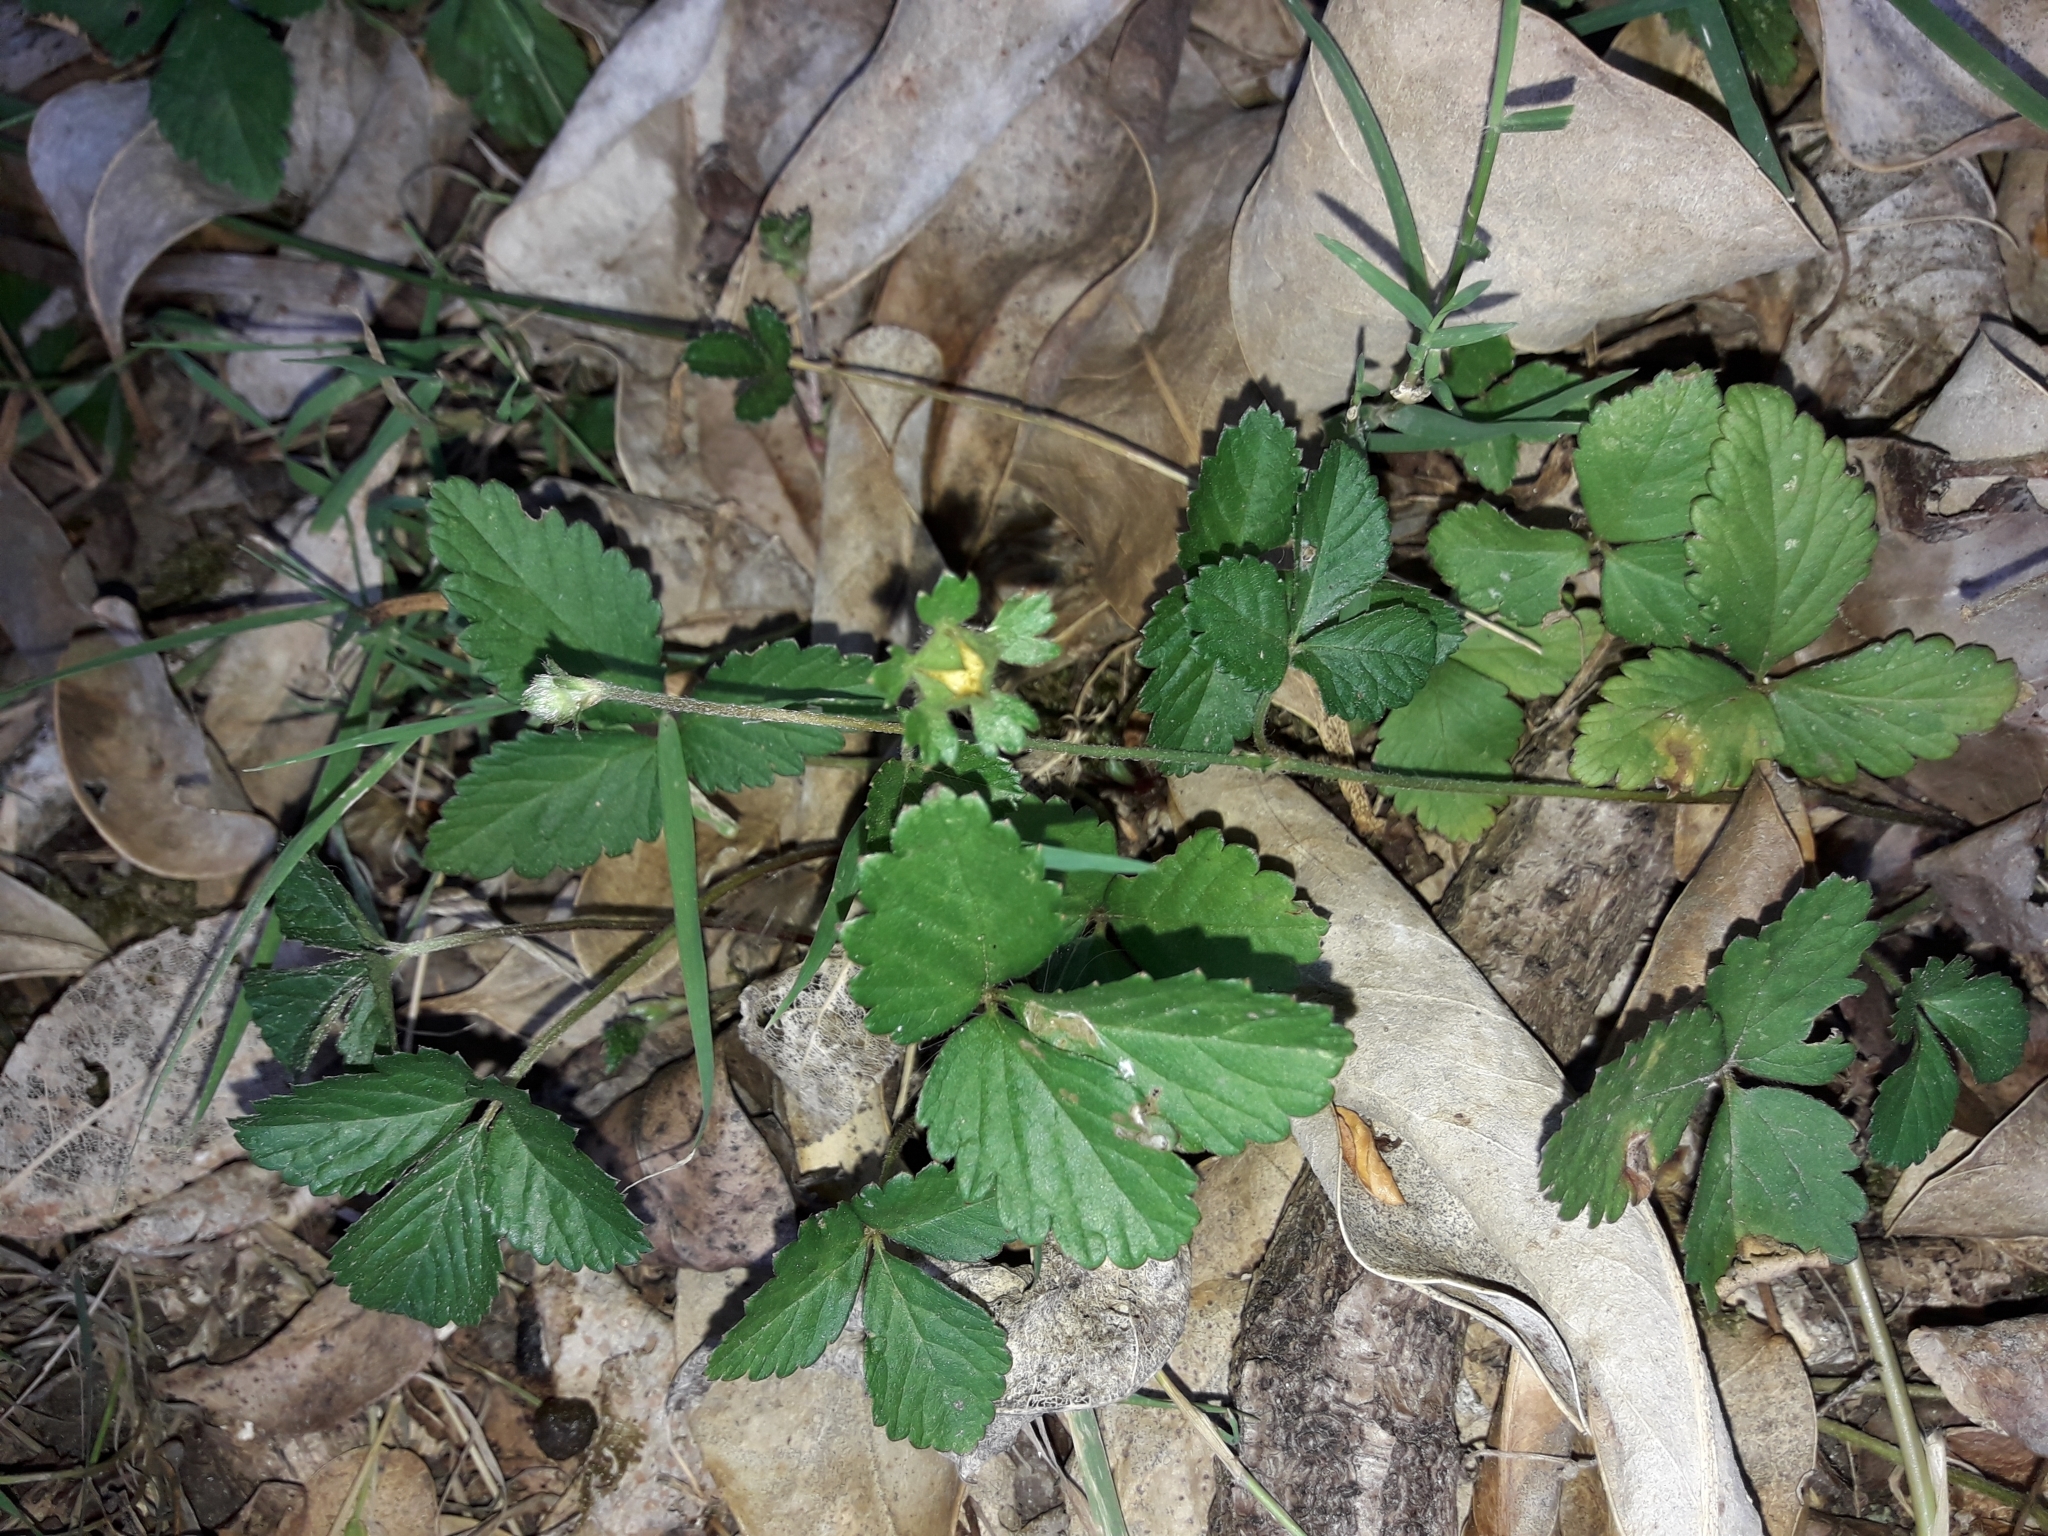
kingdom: Plantae
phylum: Tracheophyta
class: Magnoliopsida
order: Rosales
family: Rosaceae
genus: Potentilla
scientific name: Potentilla indica
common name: Yellow-flowered strawberry
